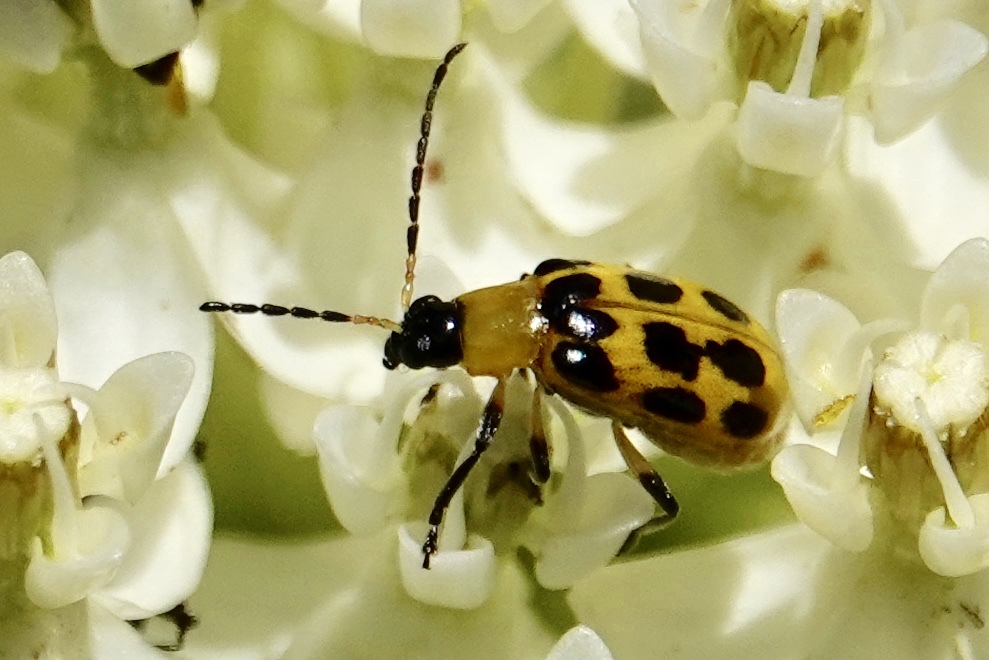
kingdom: Animalia
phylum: Arthropoda
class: Insecta
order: Coleoptera
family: Chrysomelidae
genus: Diabrotica
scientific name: Diabrotica undecimpunctata
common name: Spotted cucumber beetle
